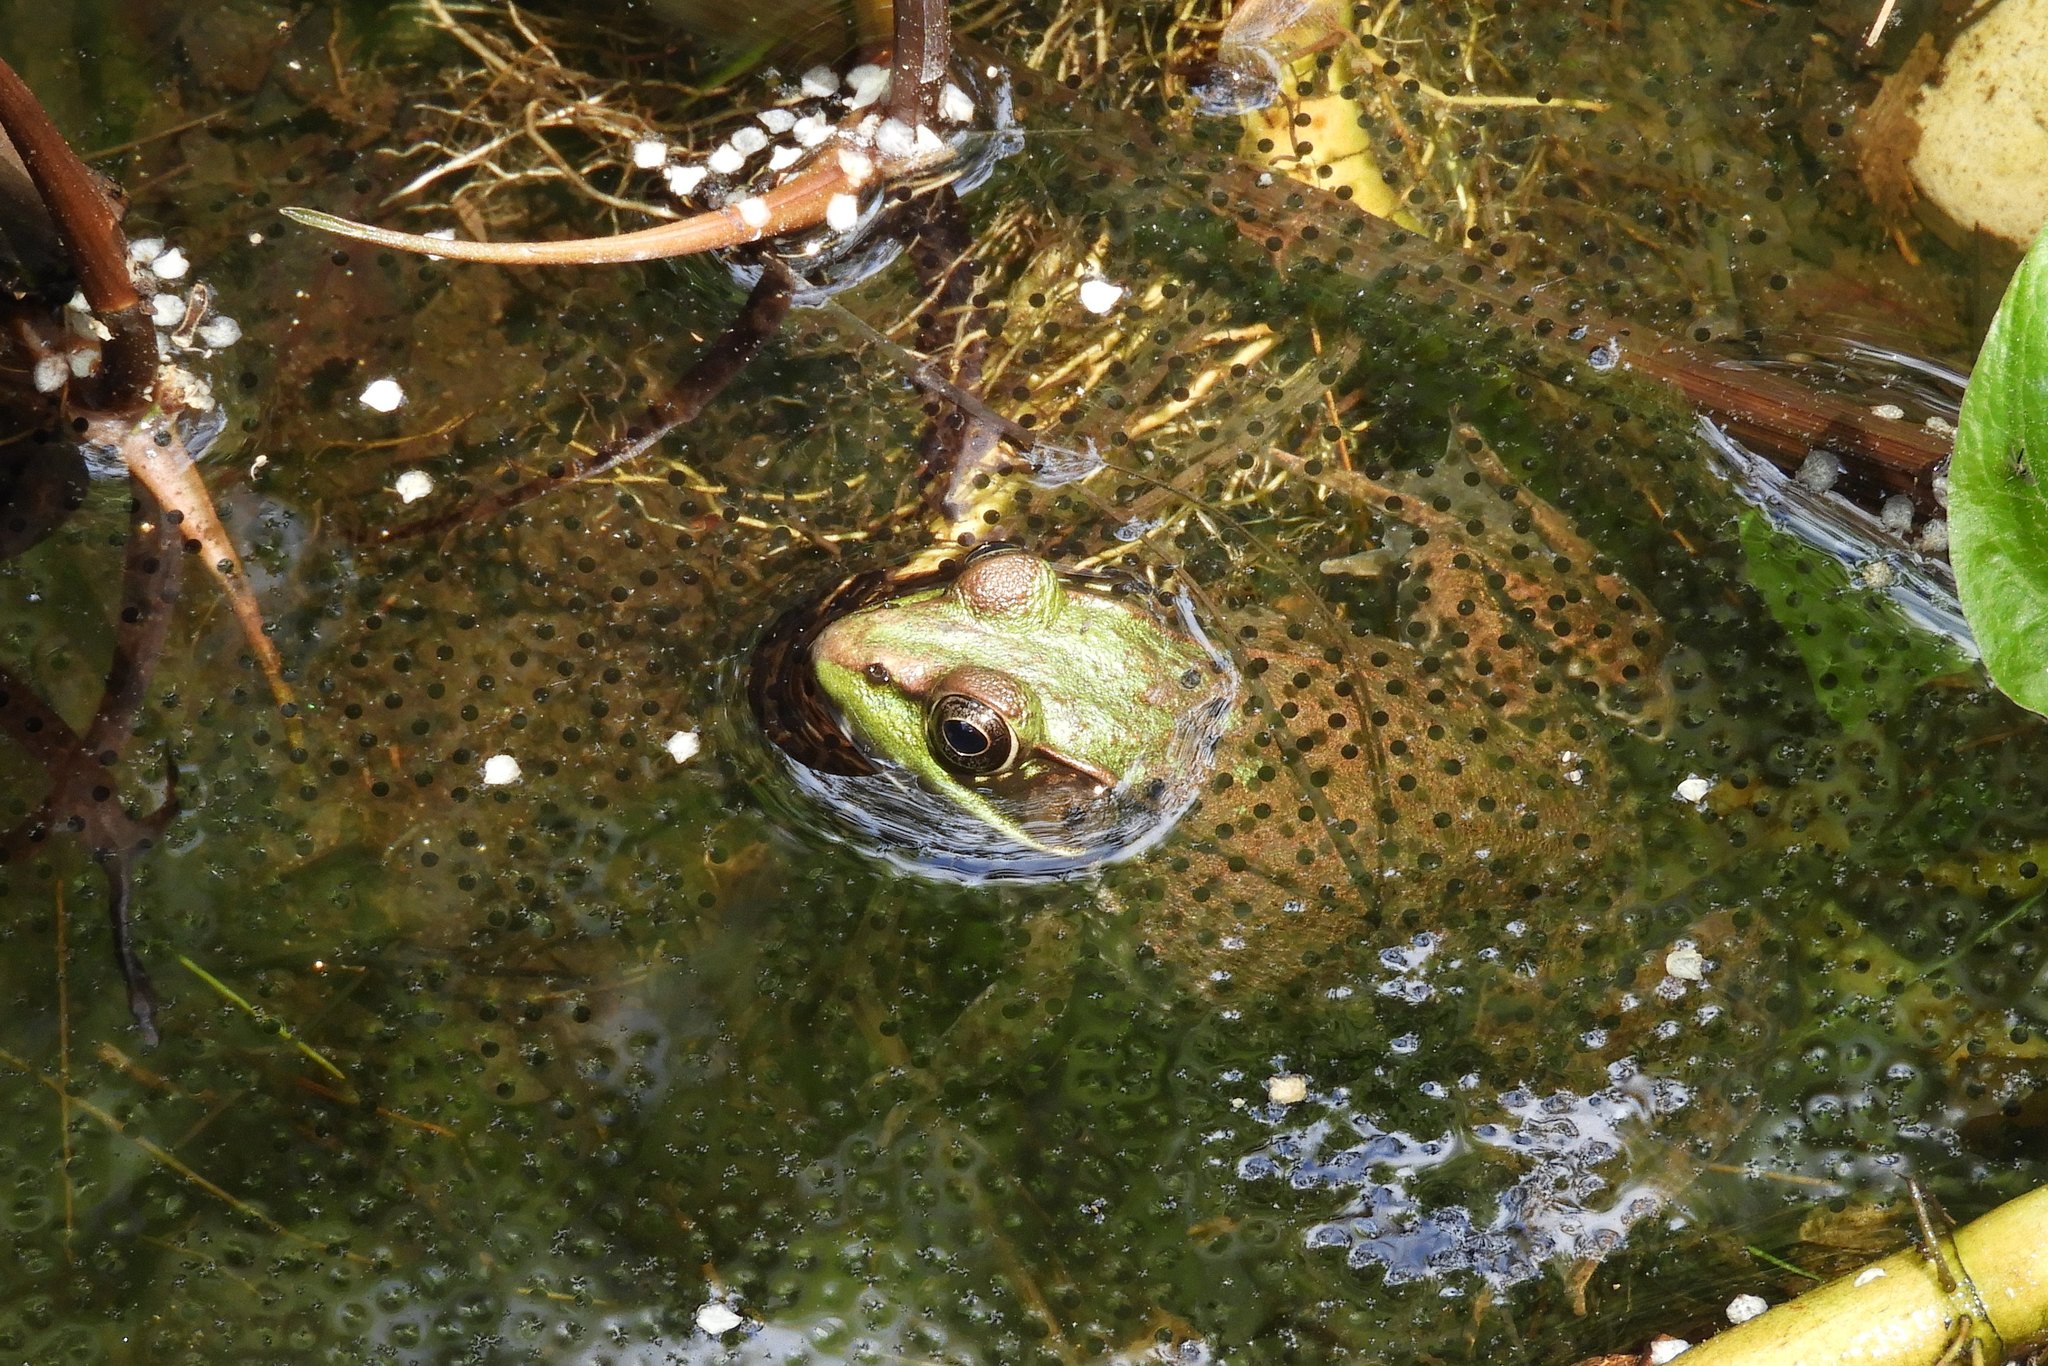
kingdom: Animalia
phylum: Chordata
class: Amphibia
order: Anura
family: Ranidae
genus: Lithobates
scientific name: Lithobates clamitans
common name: Green frog
